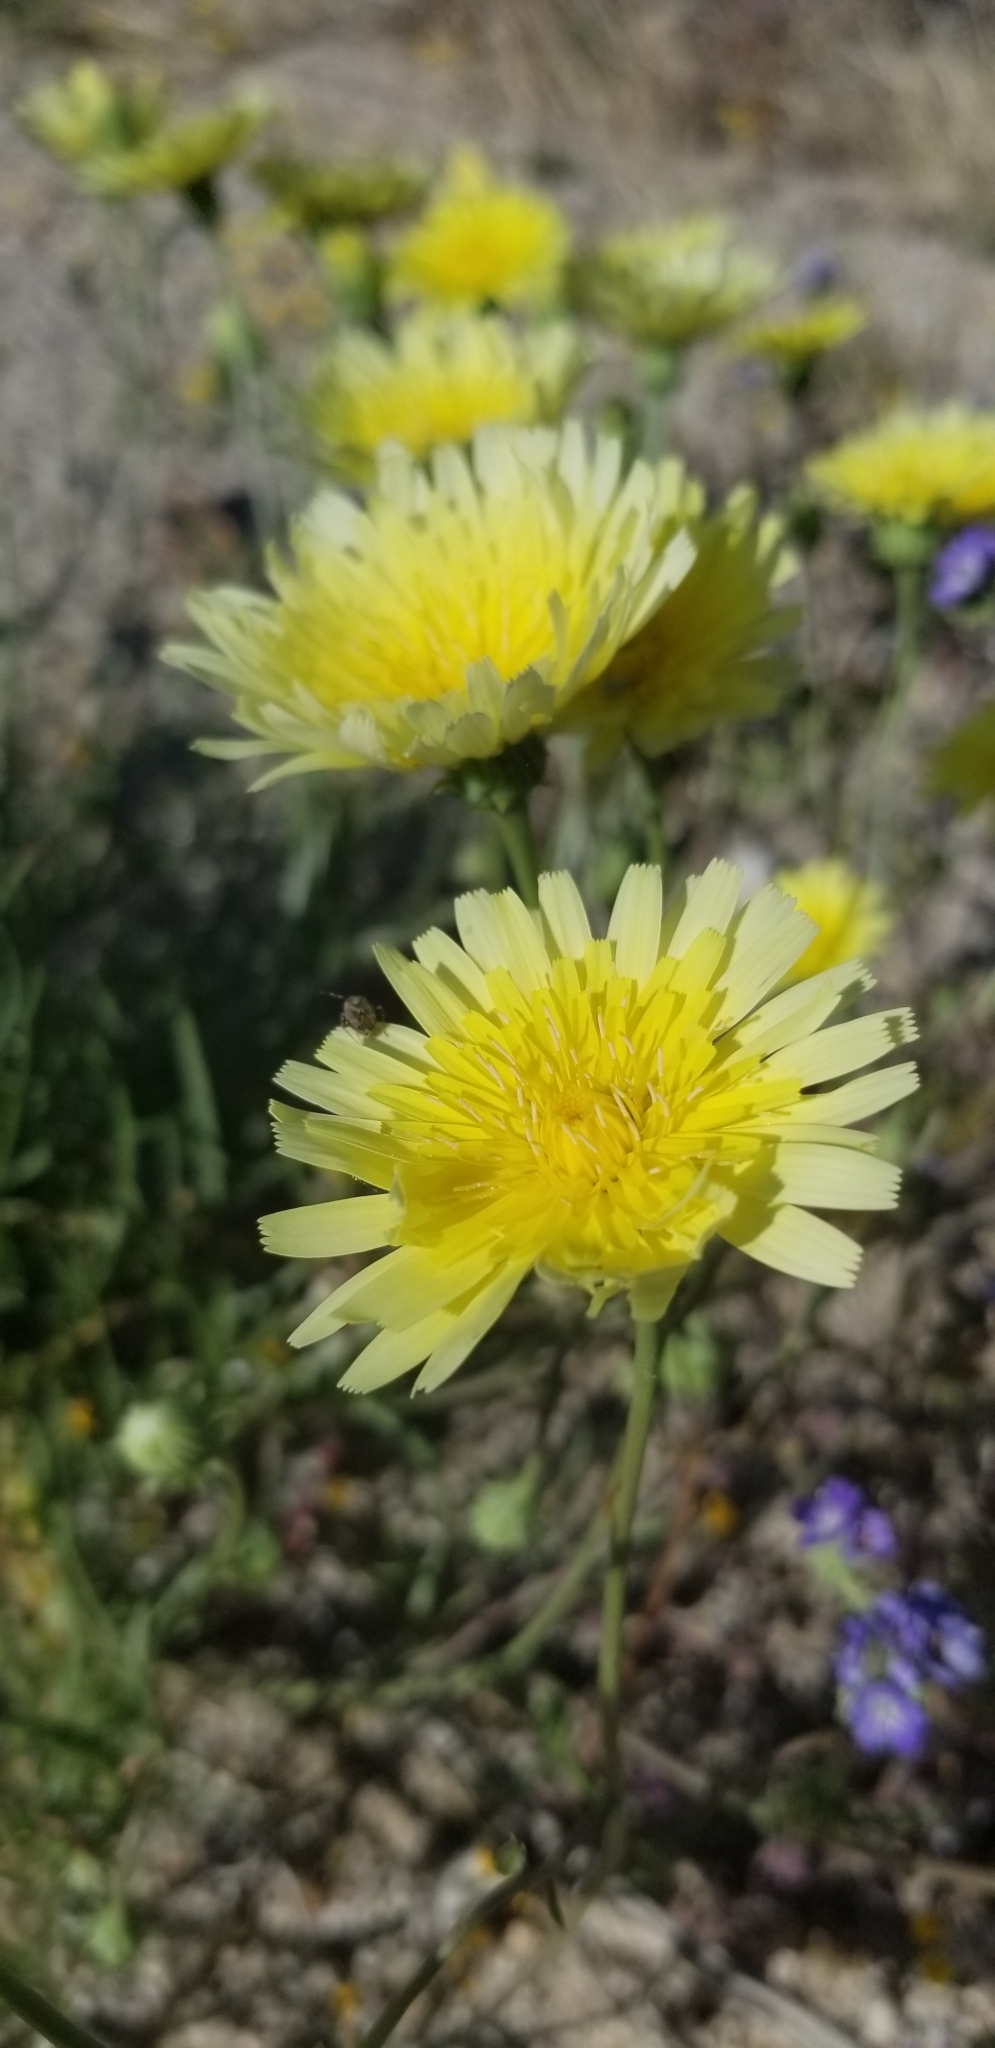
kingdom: Plantae
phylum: Tracheophyta
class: Magnoliopsida
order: Asterales
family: Asteraceae
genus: Malacothrix
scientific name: Malacothrix glabrata
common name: Smooth desert-dandelion
